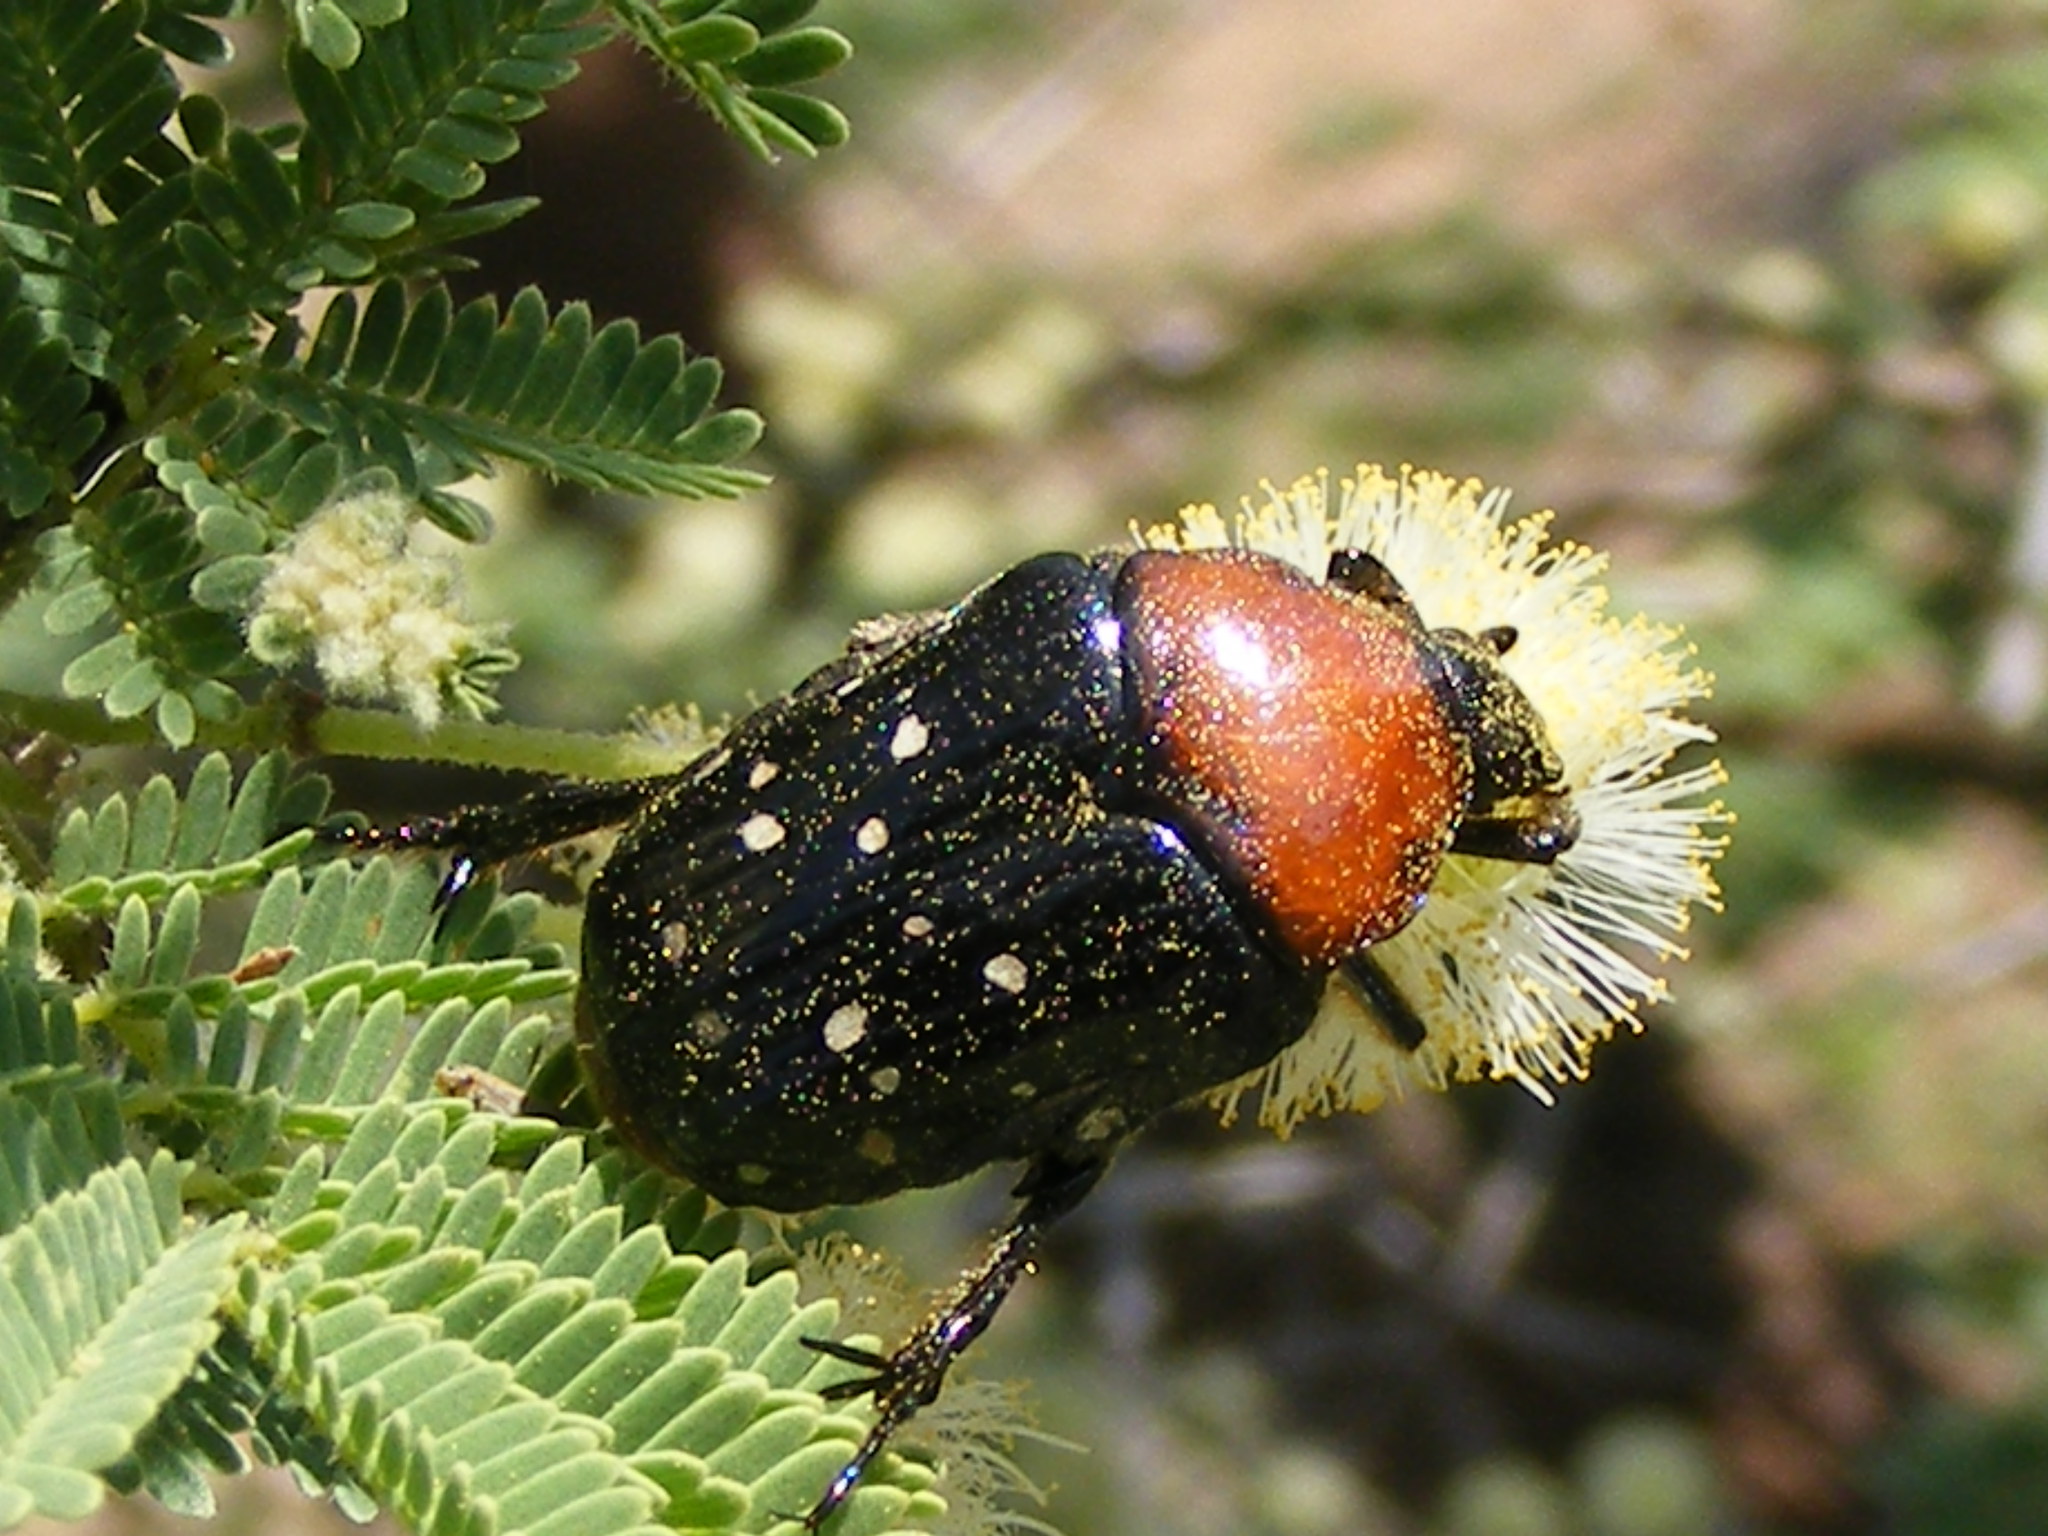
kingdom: Animalia
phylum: Arthropoda
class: Insecta
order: Coleoptera
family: Scarabaeidae
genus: Clinteroides
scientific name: Clinteroides permutans
